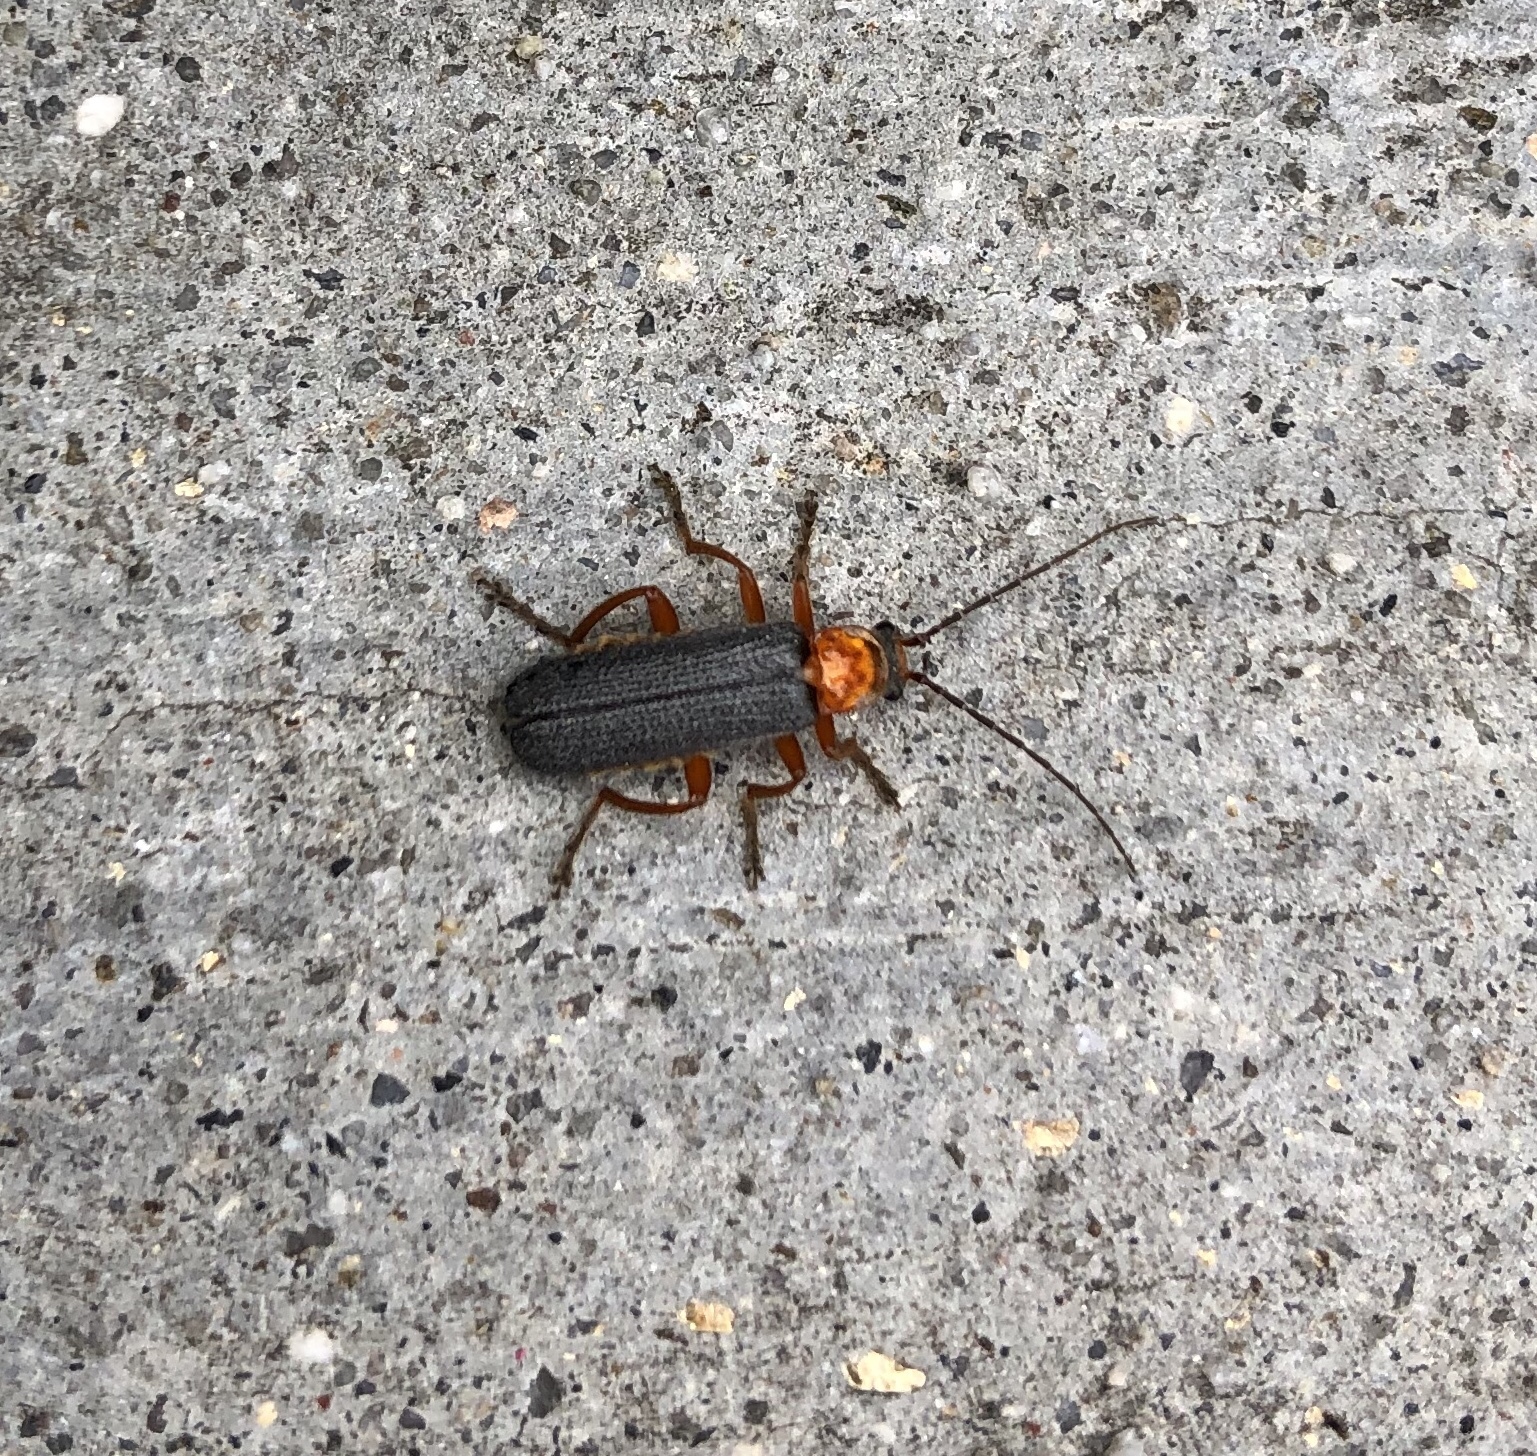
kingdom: Animalia
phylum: Arthropoda
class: Insecta
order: Coleoptera
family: Cantharidae
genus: Cultellunguis
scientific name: Cultellunguis
